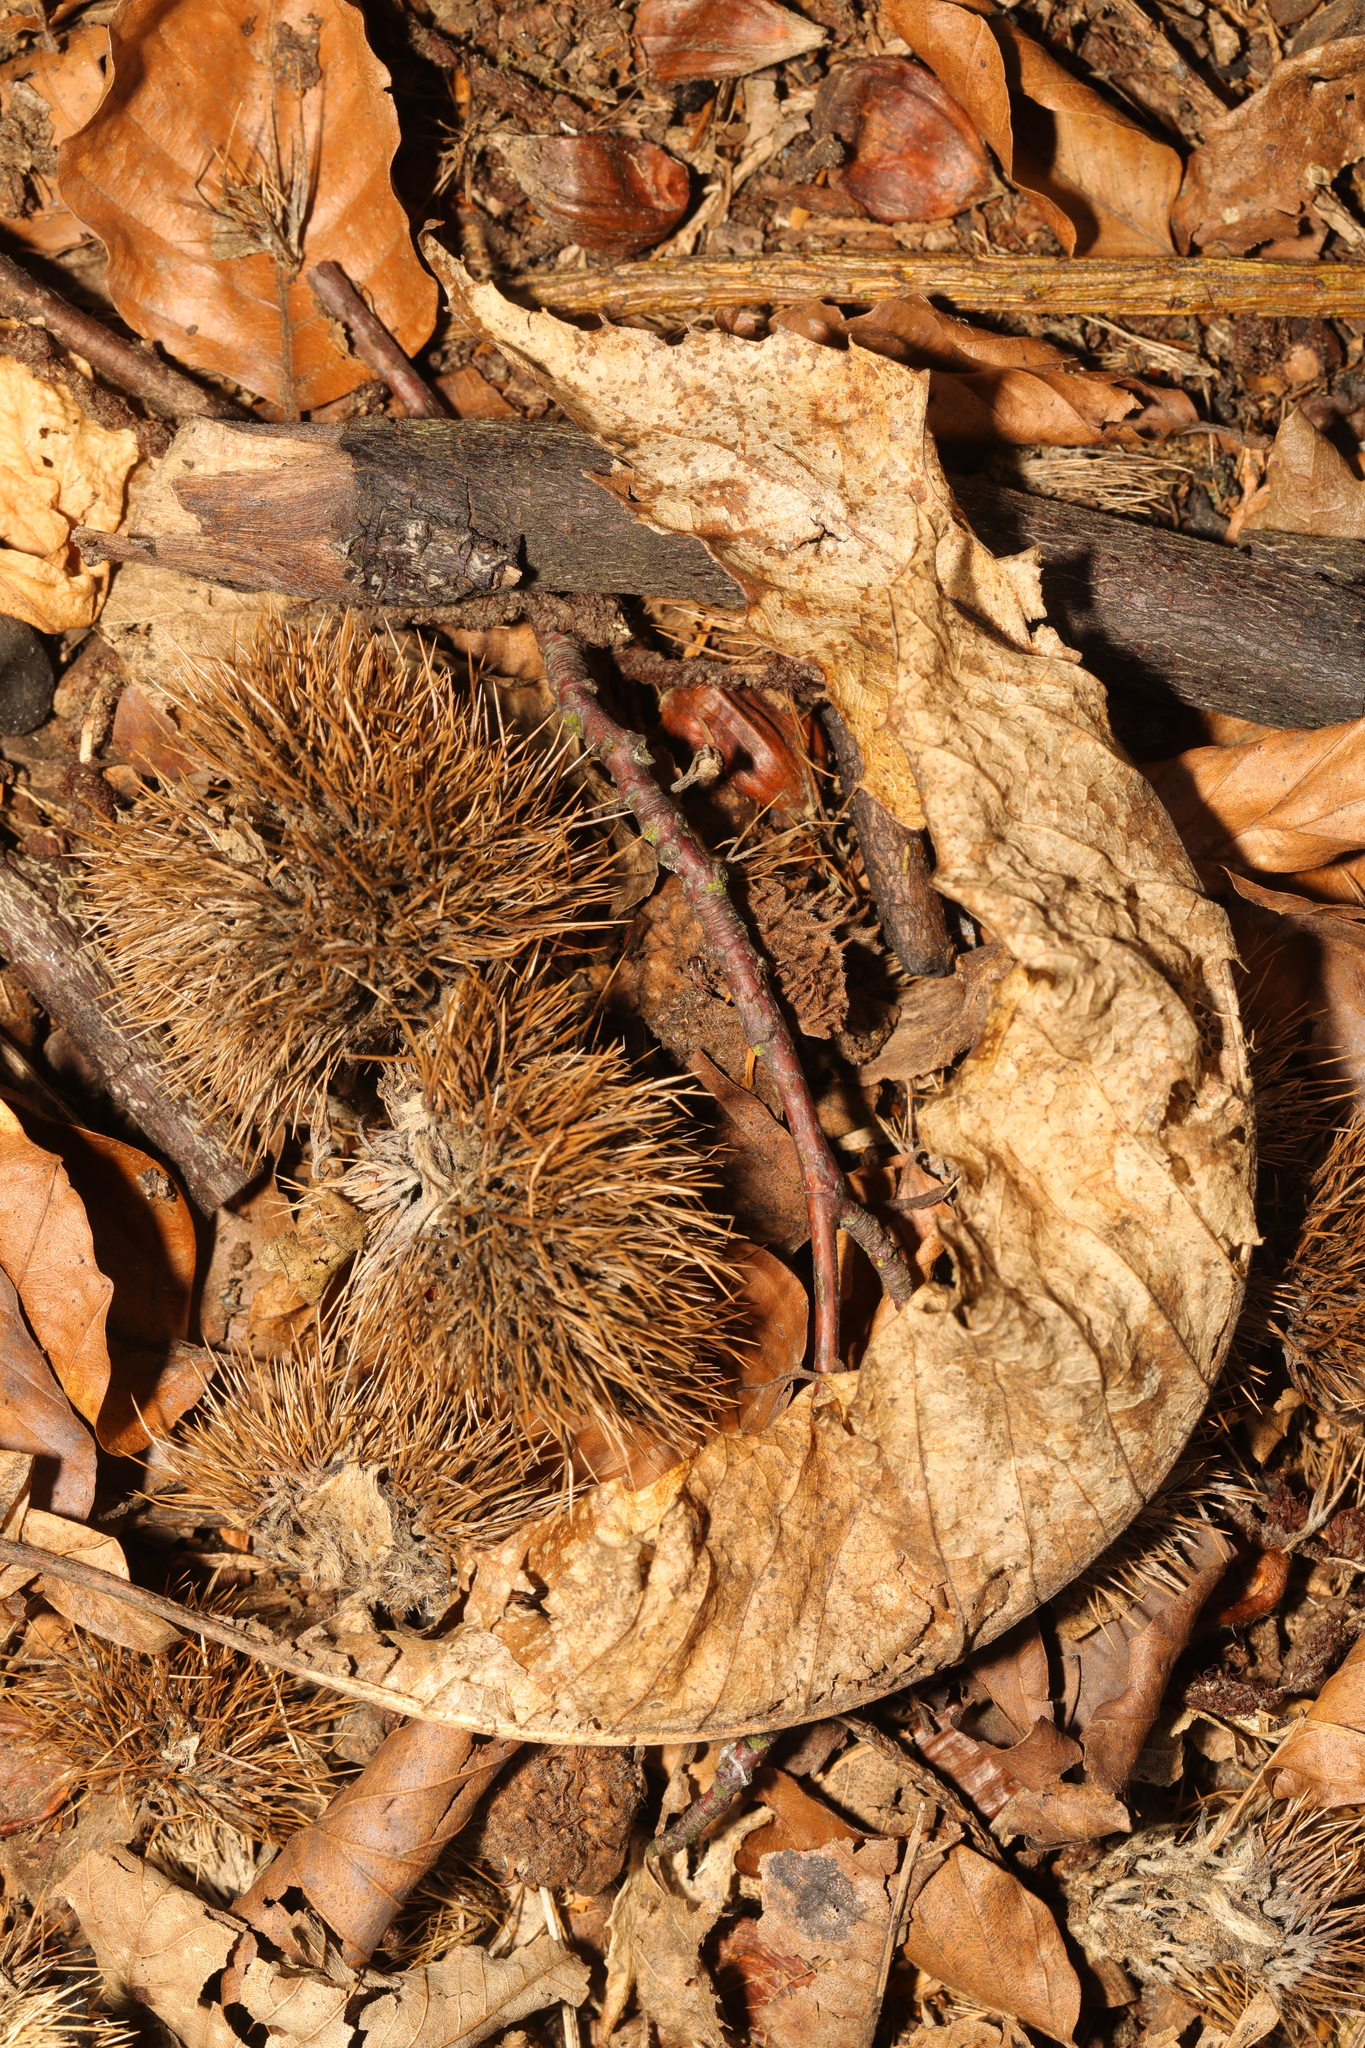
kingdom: Plantae
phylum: Tracheophyta
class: Magnoliopsida
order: Fagales
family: Fagaceae
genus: Castanea
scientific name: Castanea sativa
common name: Sweet chestnut
